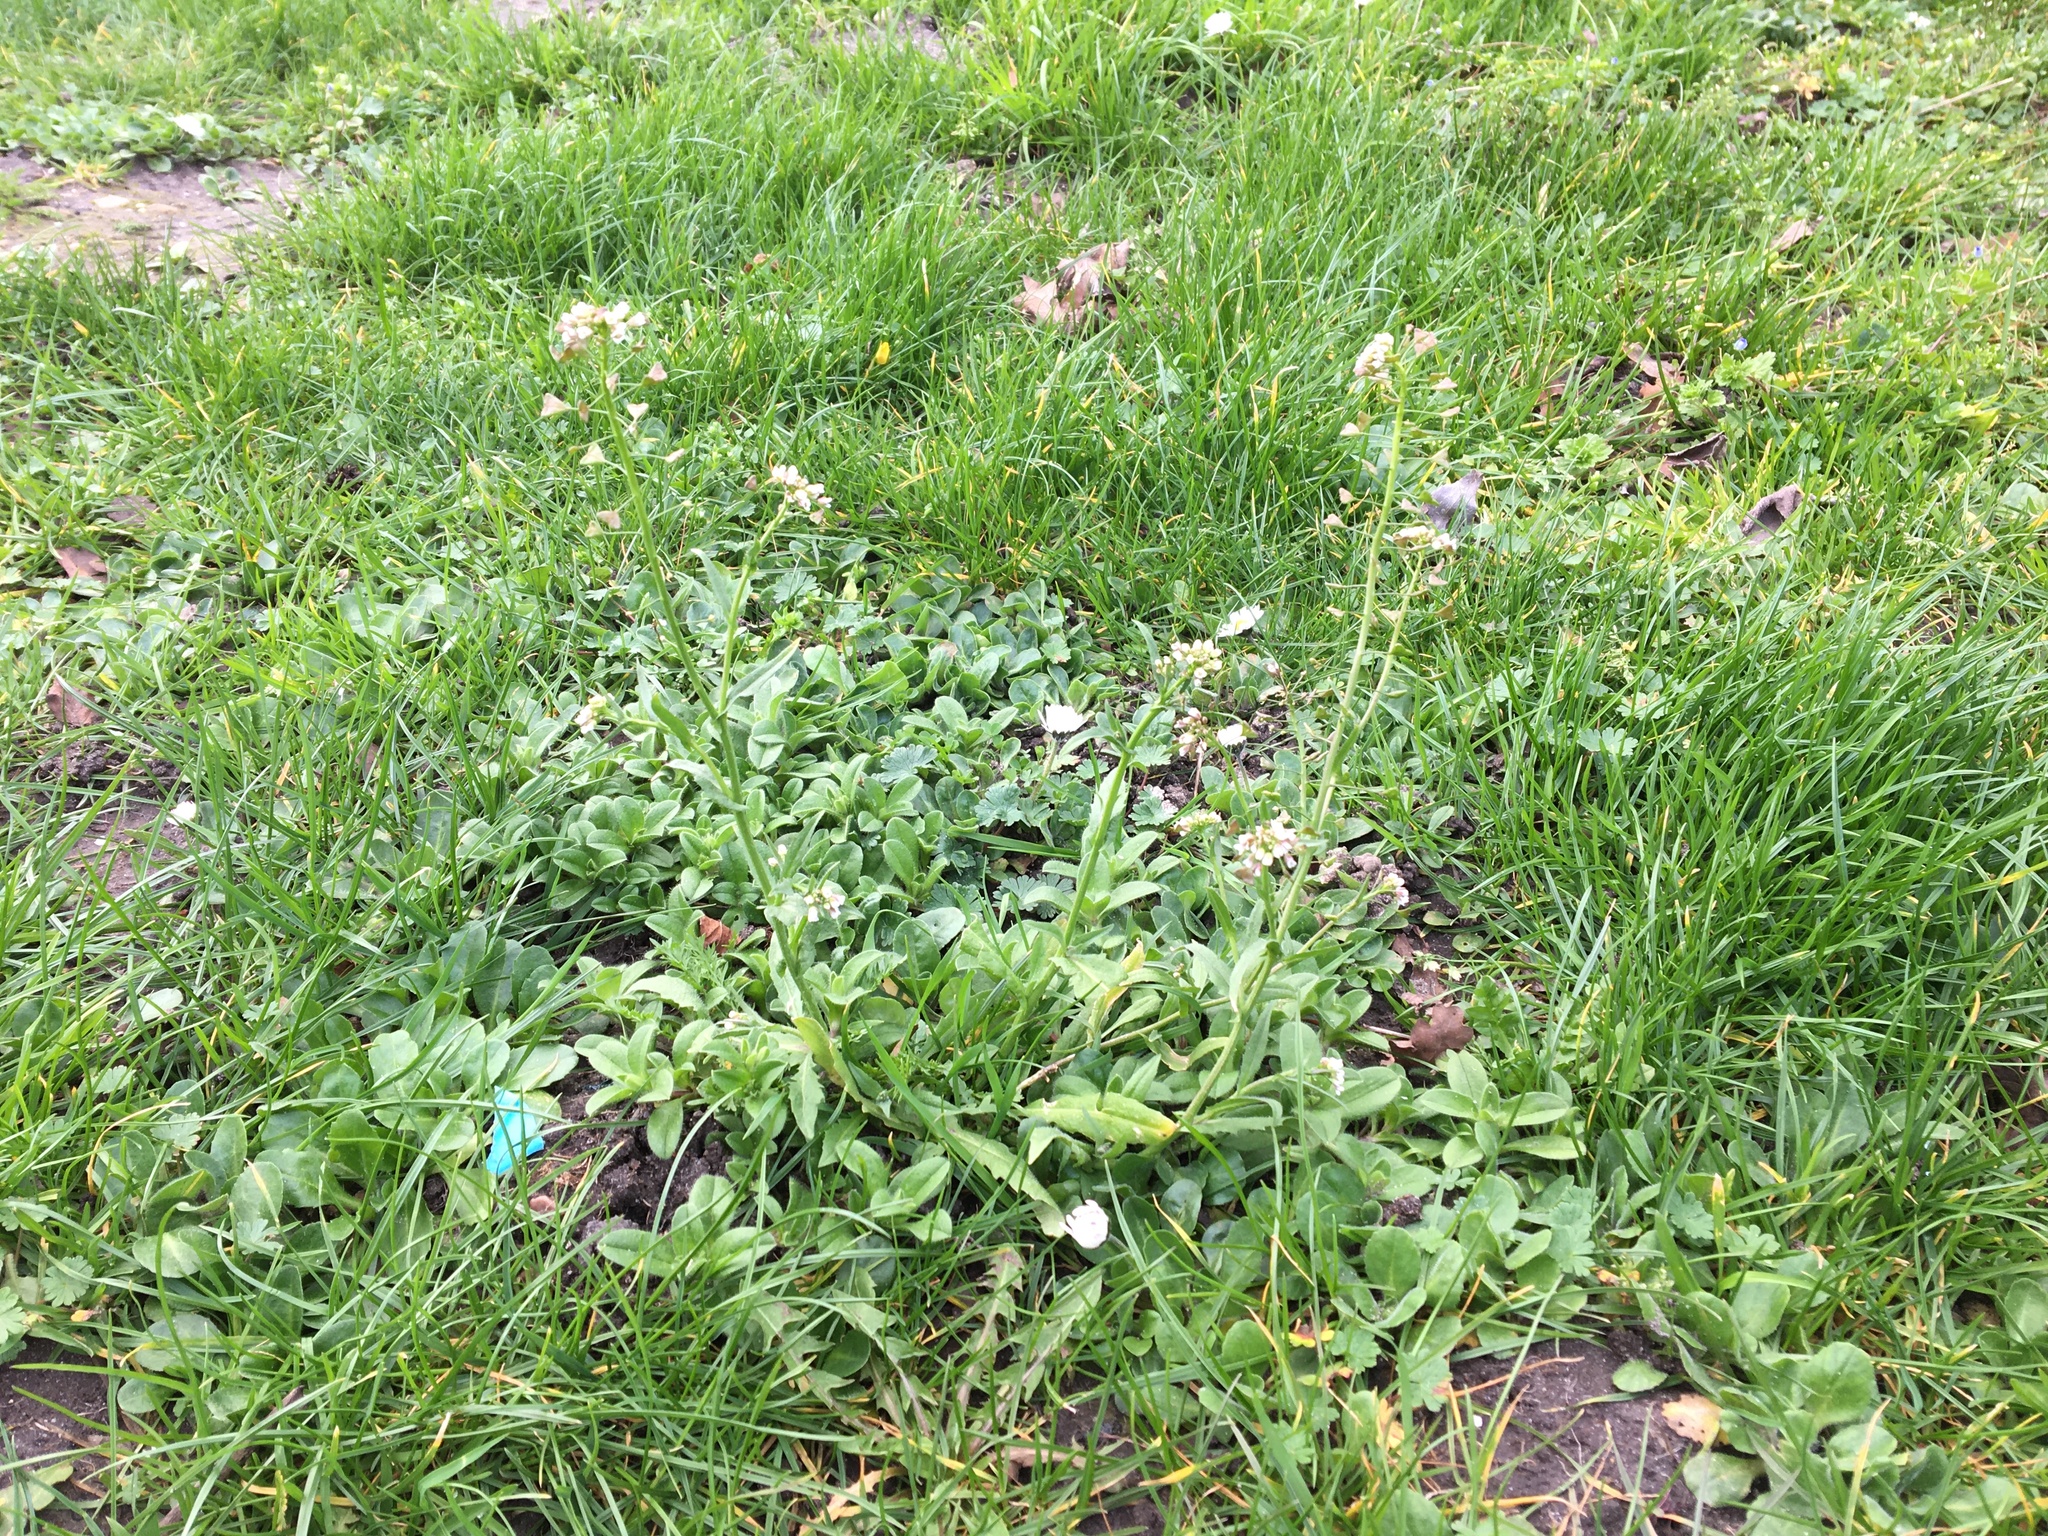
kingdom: Plantae
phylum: Tracheophyta
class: Magnoliopsida
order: Brassicales
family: Brassicaceae
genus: Capsella
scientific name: Capsella bursa-pastoris
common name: Shepherd's purse
